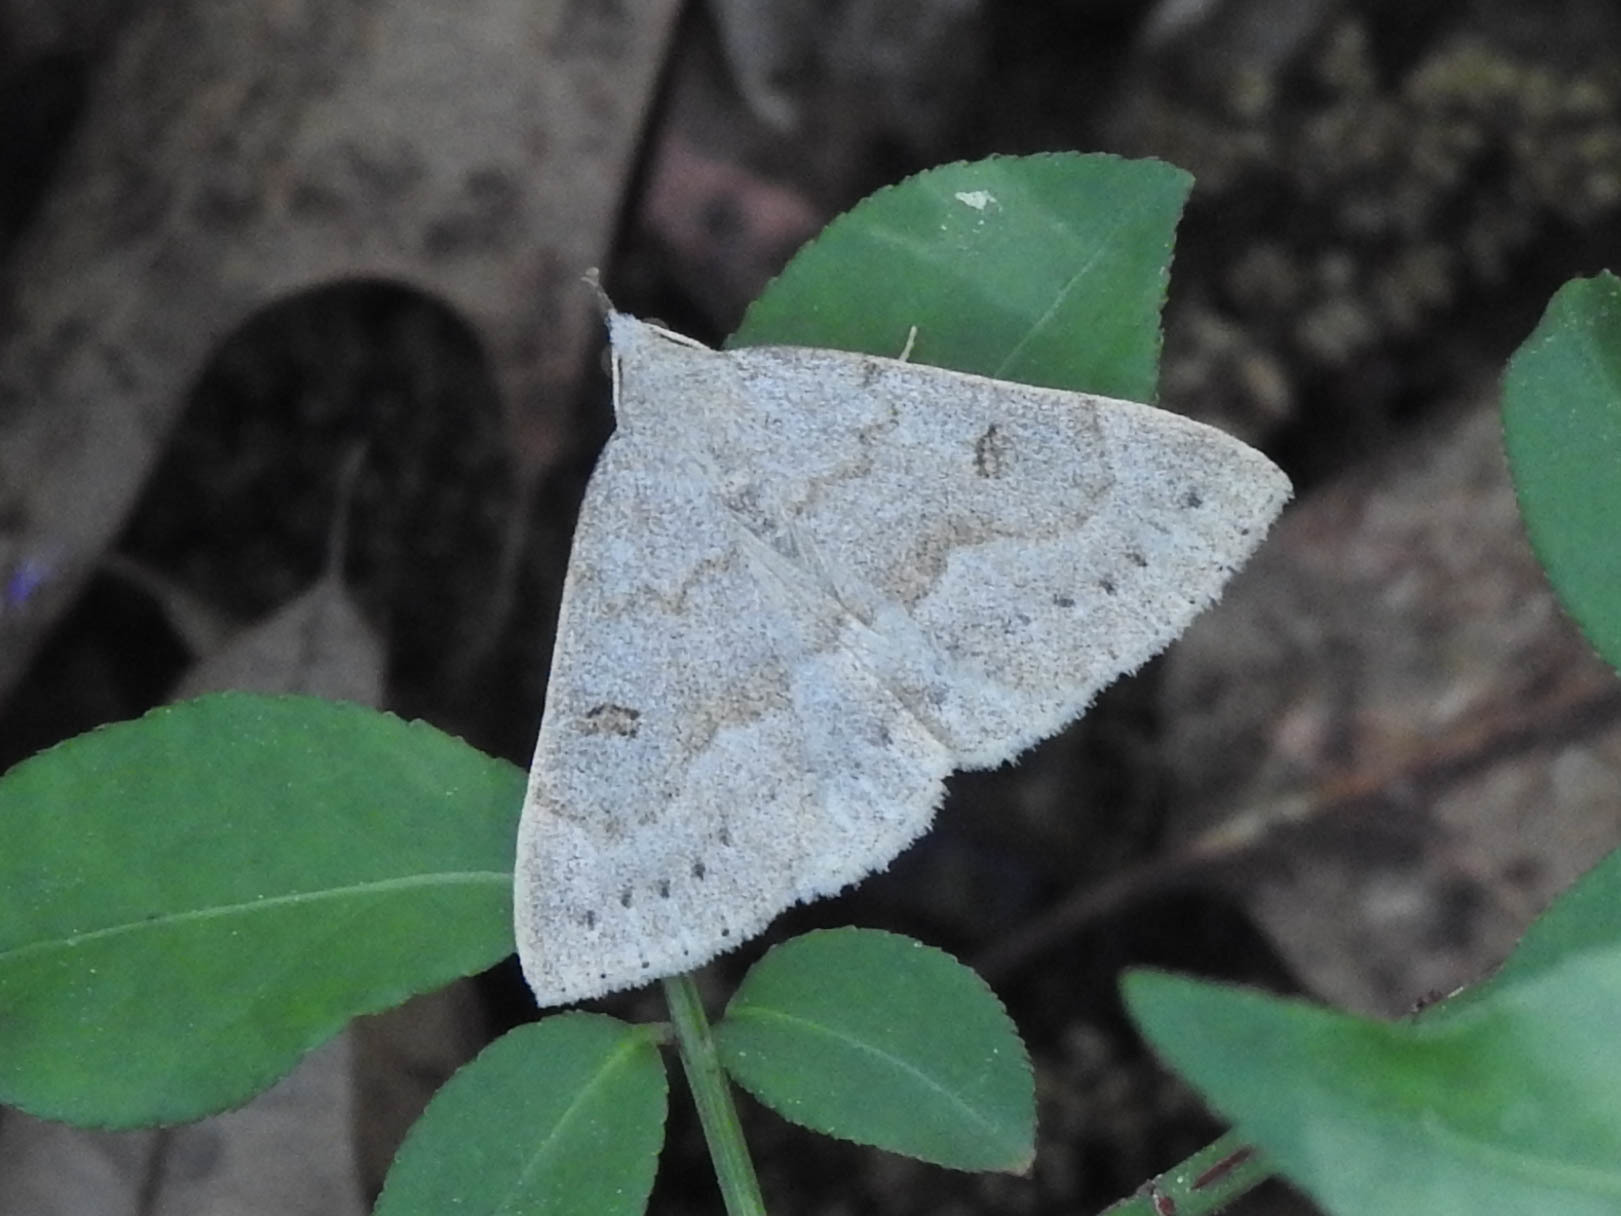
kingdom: Animalia
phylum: Arthropoda
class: Insecta
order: Lepidoptera
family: Erebidae
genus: Macrochilo
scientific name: Macrochilo morbidalis
